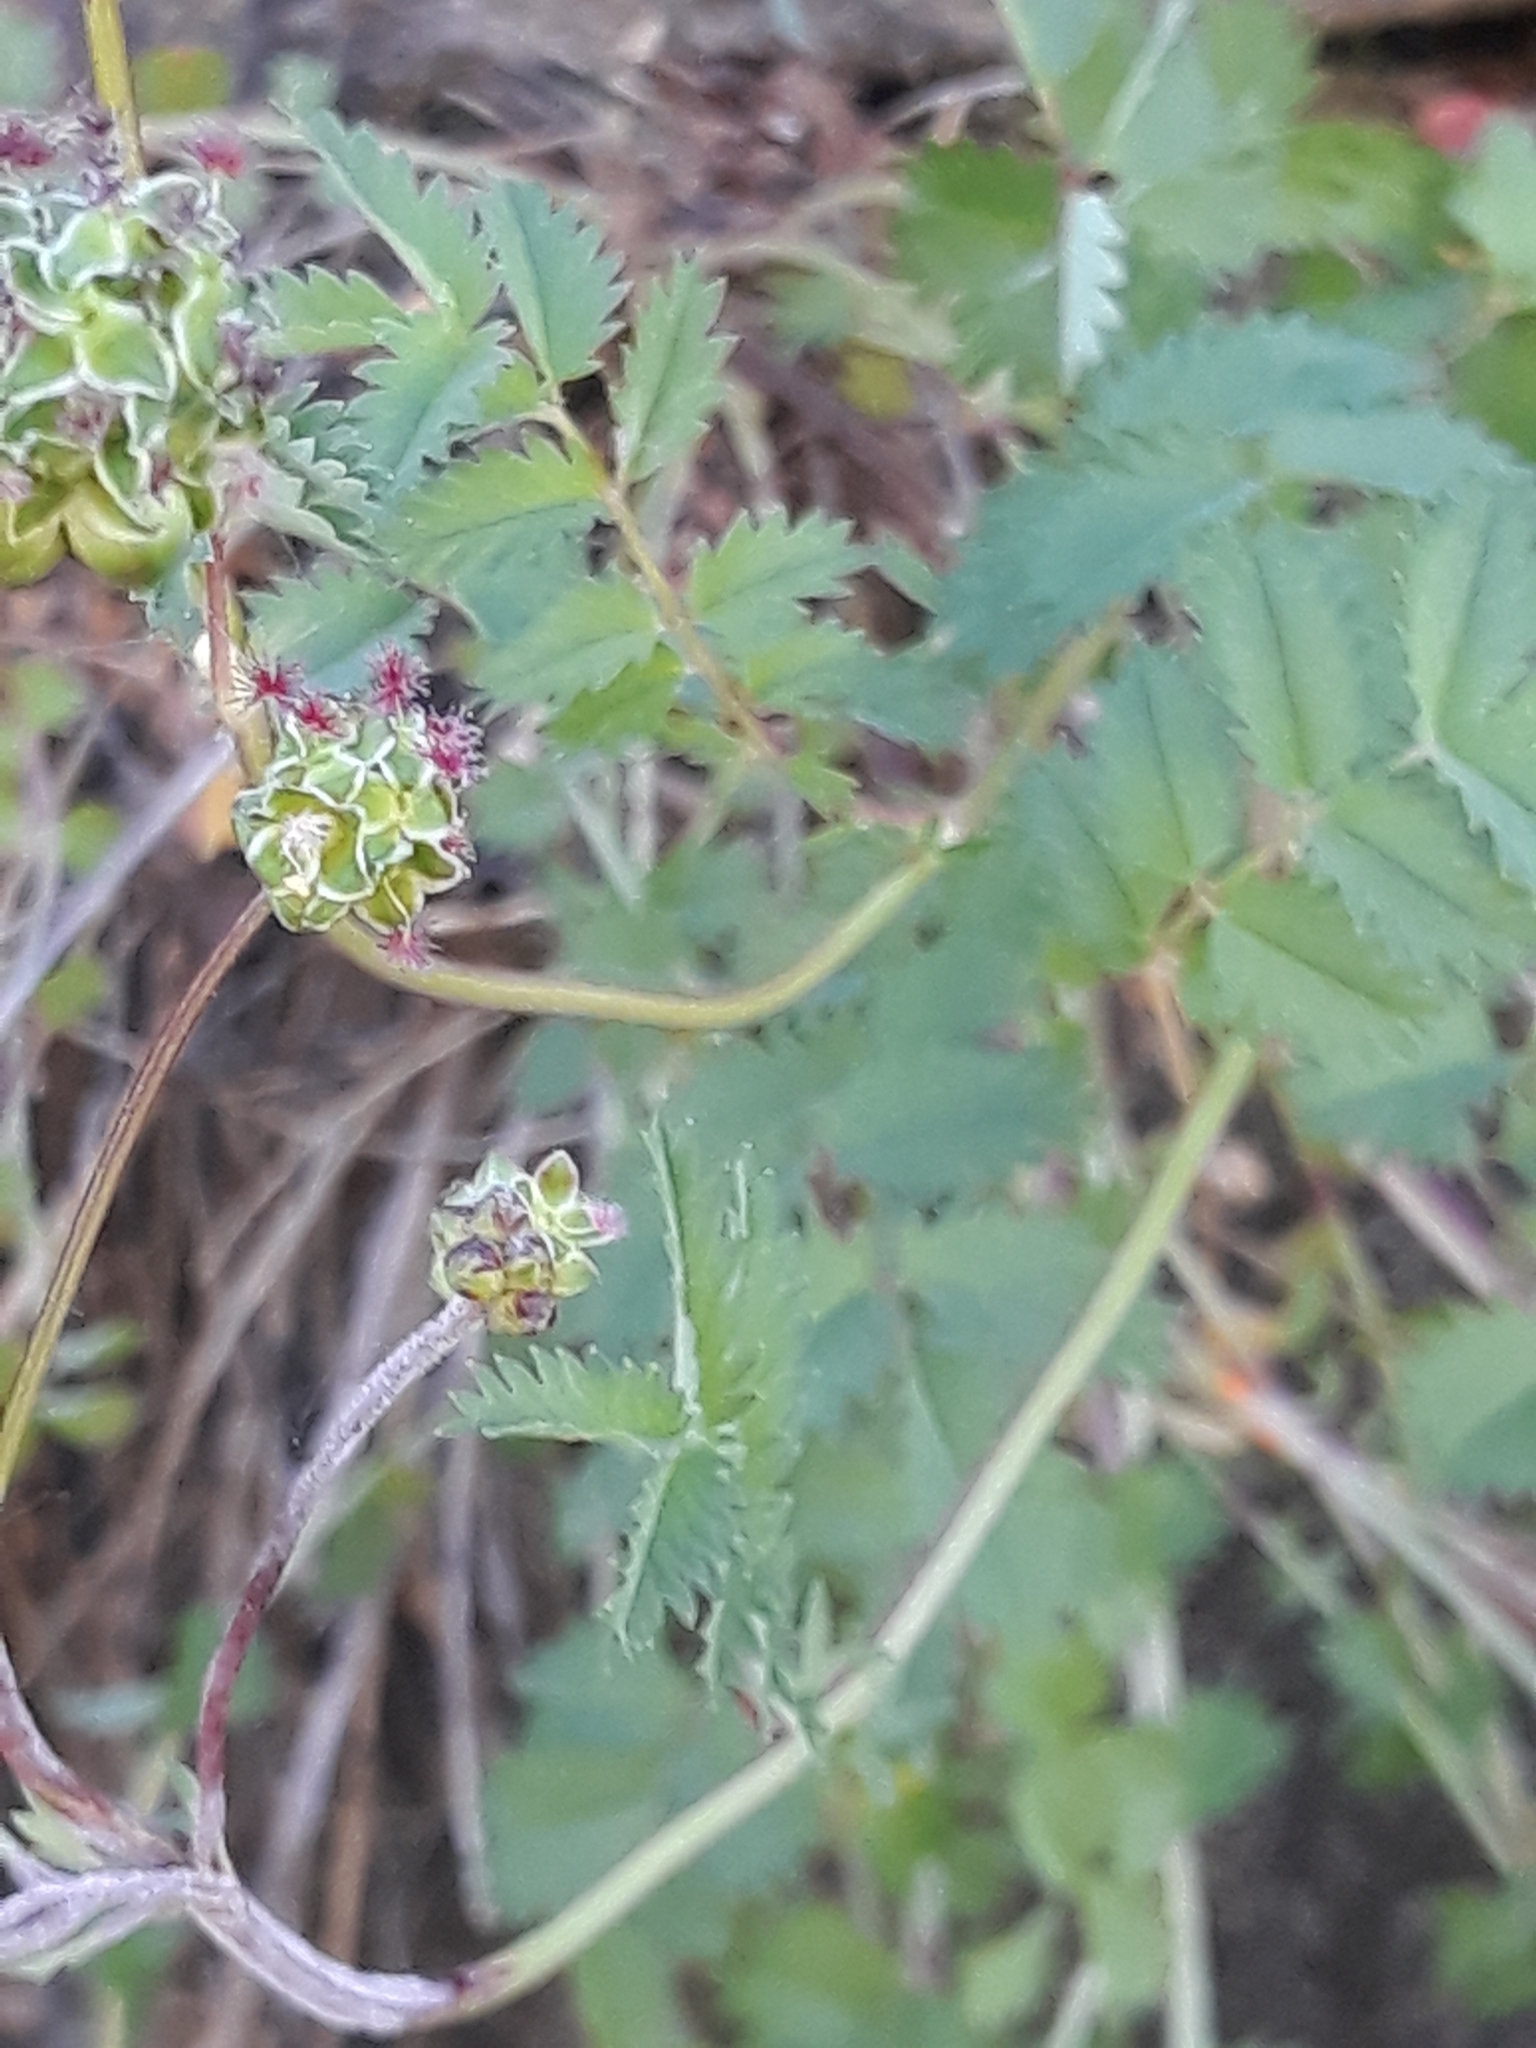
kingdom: Plantae
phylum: Tracheophyta
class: Magnoliopsida
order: Rosales
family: Rosaceae
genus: Poterium
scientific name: Poterium sanguisorba
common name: Salad burnet
